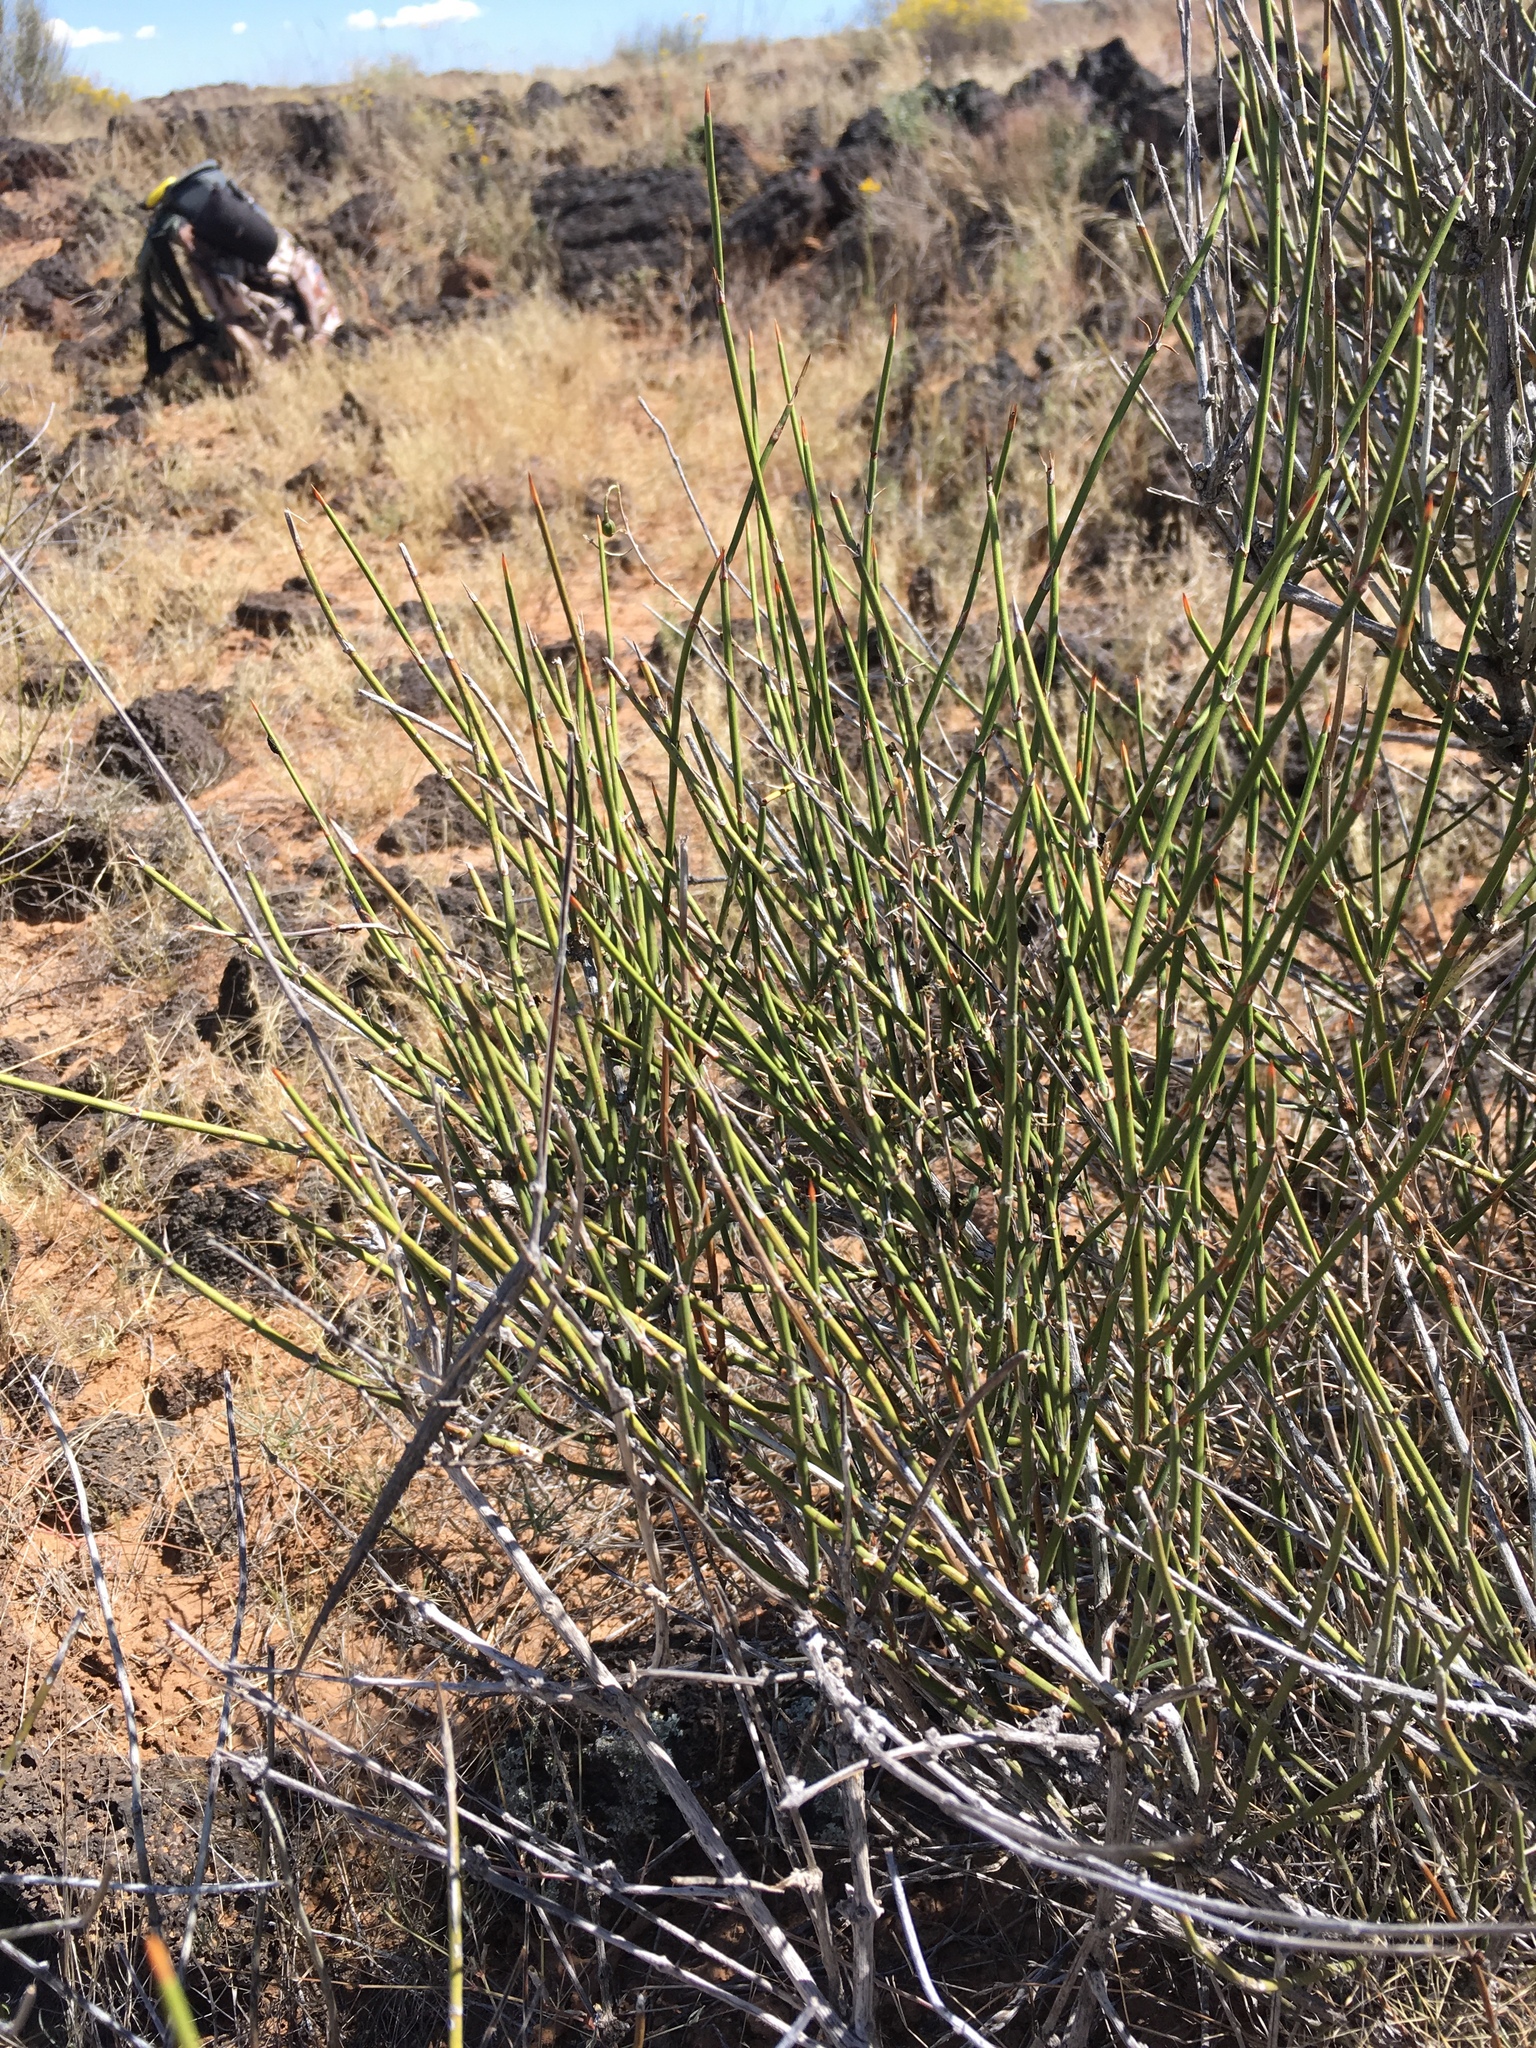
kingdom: Plantae
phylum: Tracheophyta
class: Gnetopsida
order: Ephedrales
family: Ephedraceae
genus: Ephedra
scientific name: Ephedra trifurca
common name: Mexican-tea
